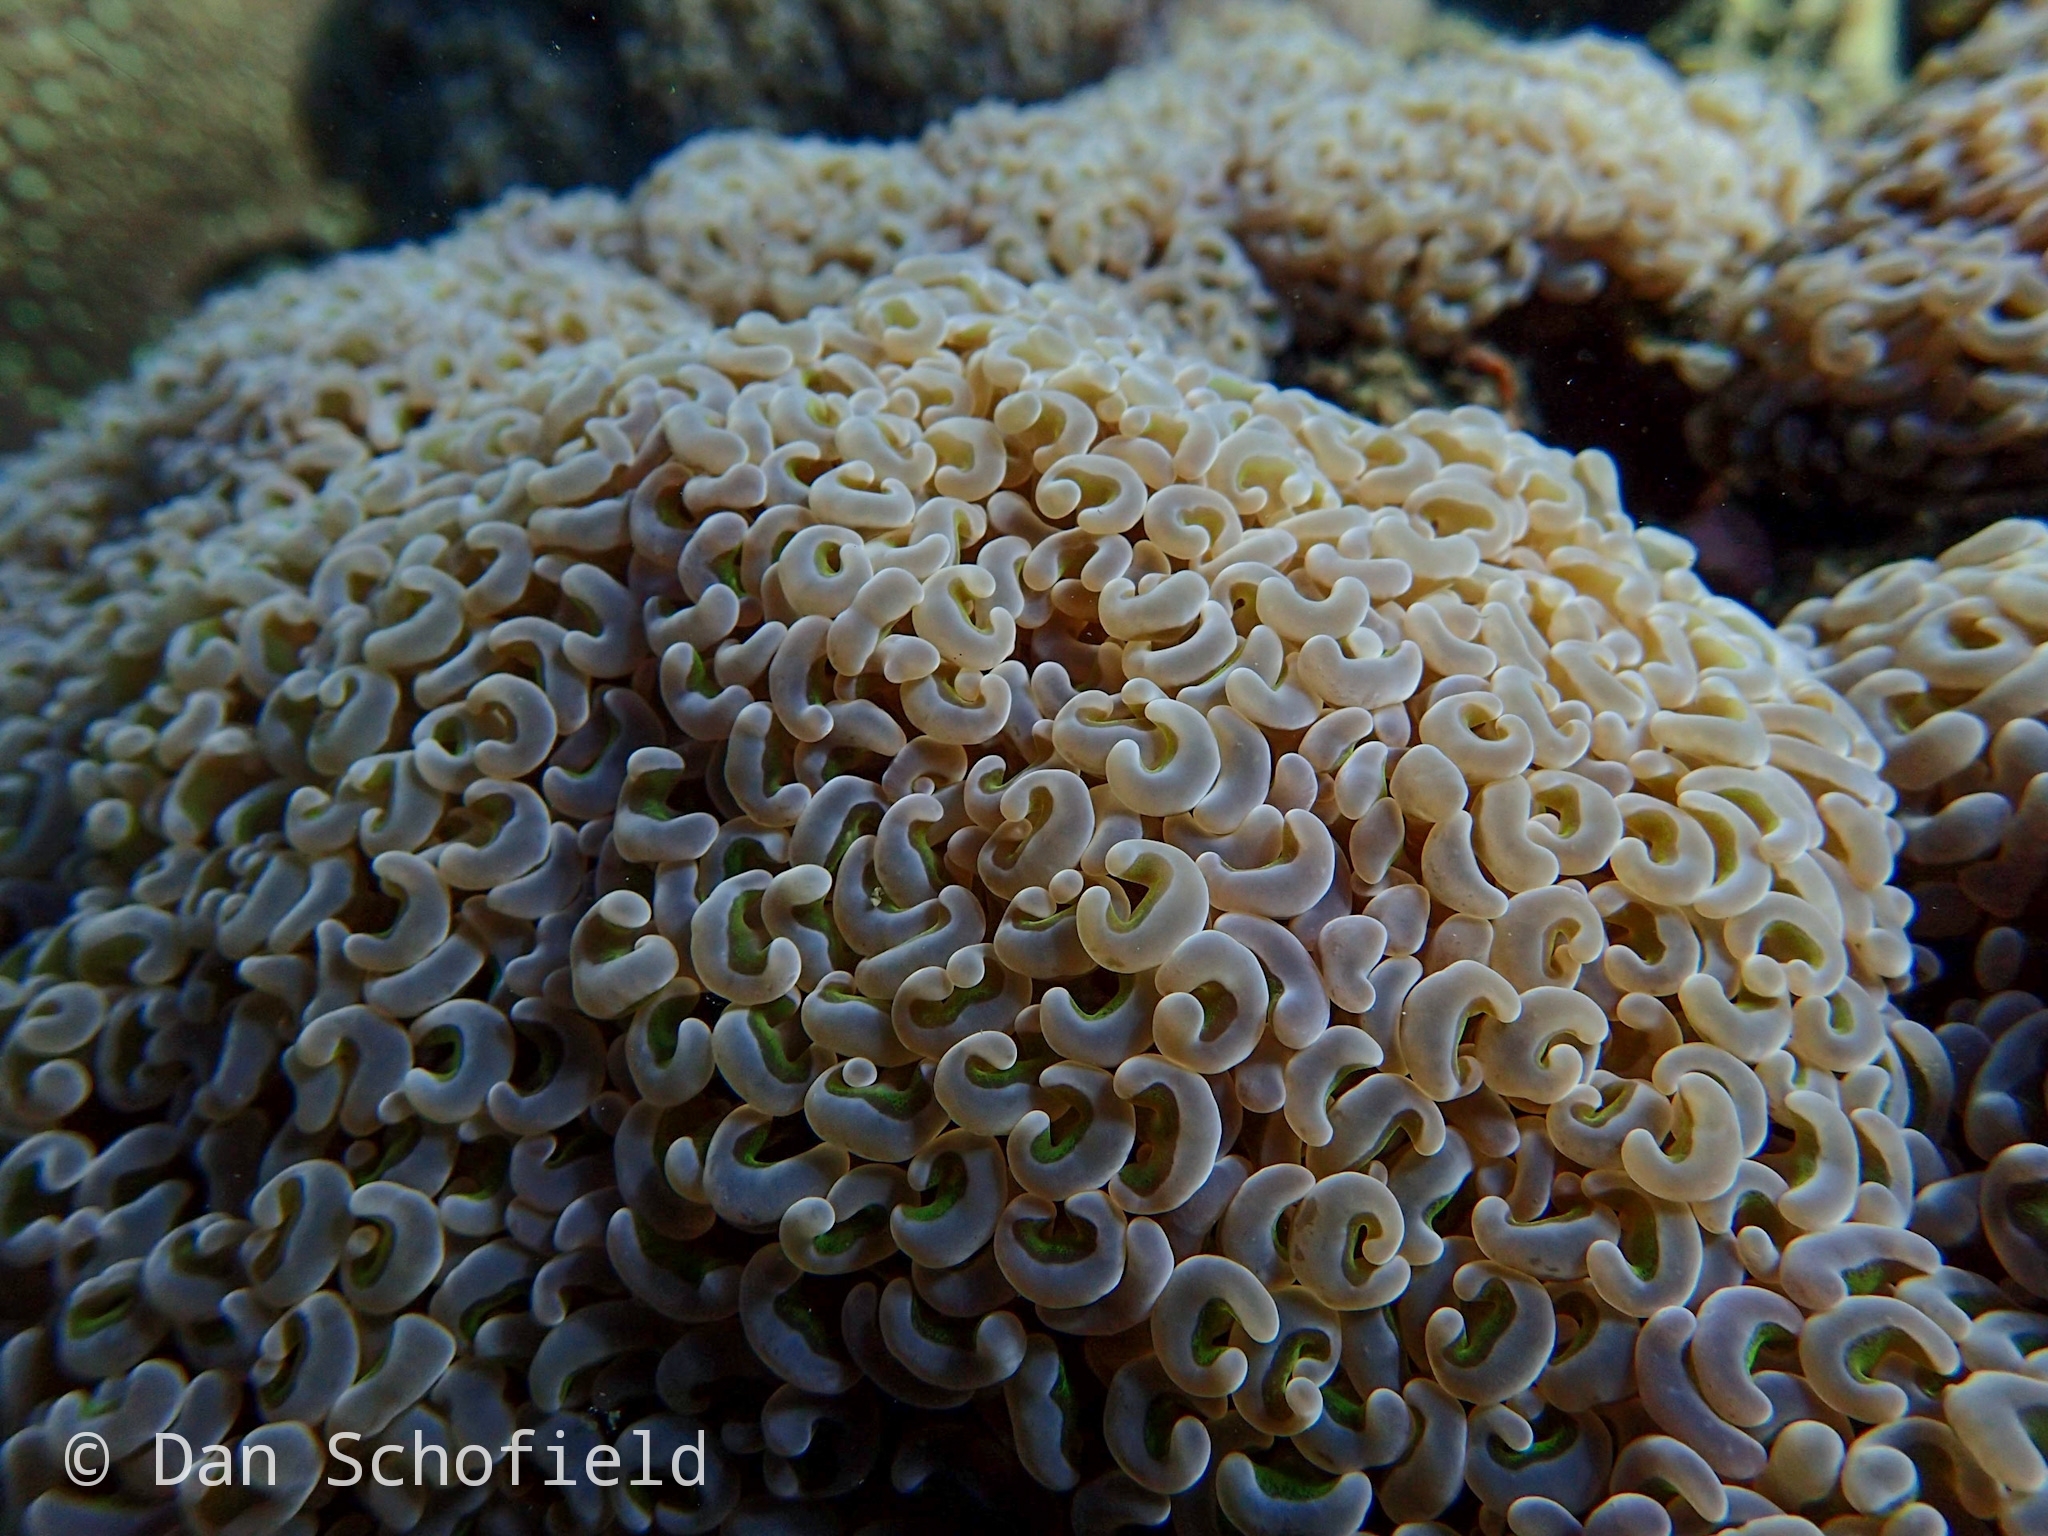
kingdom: Animalia
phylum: Cnidaria
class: Anthozoa
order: Scleractinia
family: Euphylliidae
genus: Fimbriaphyllia
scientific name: Fimbriaphyllia ancora
